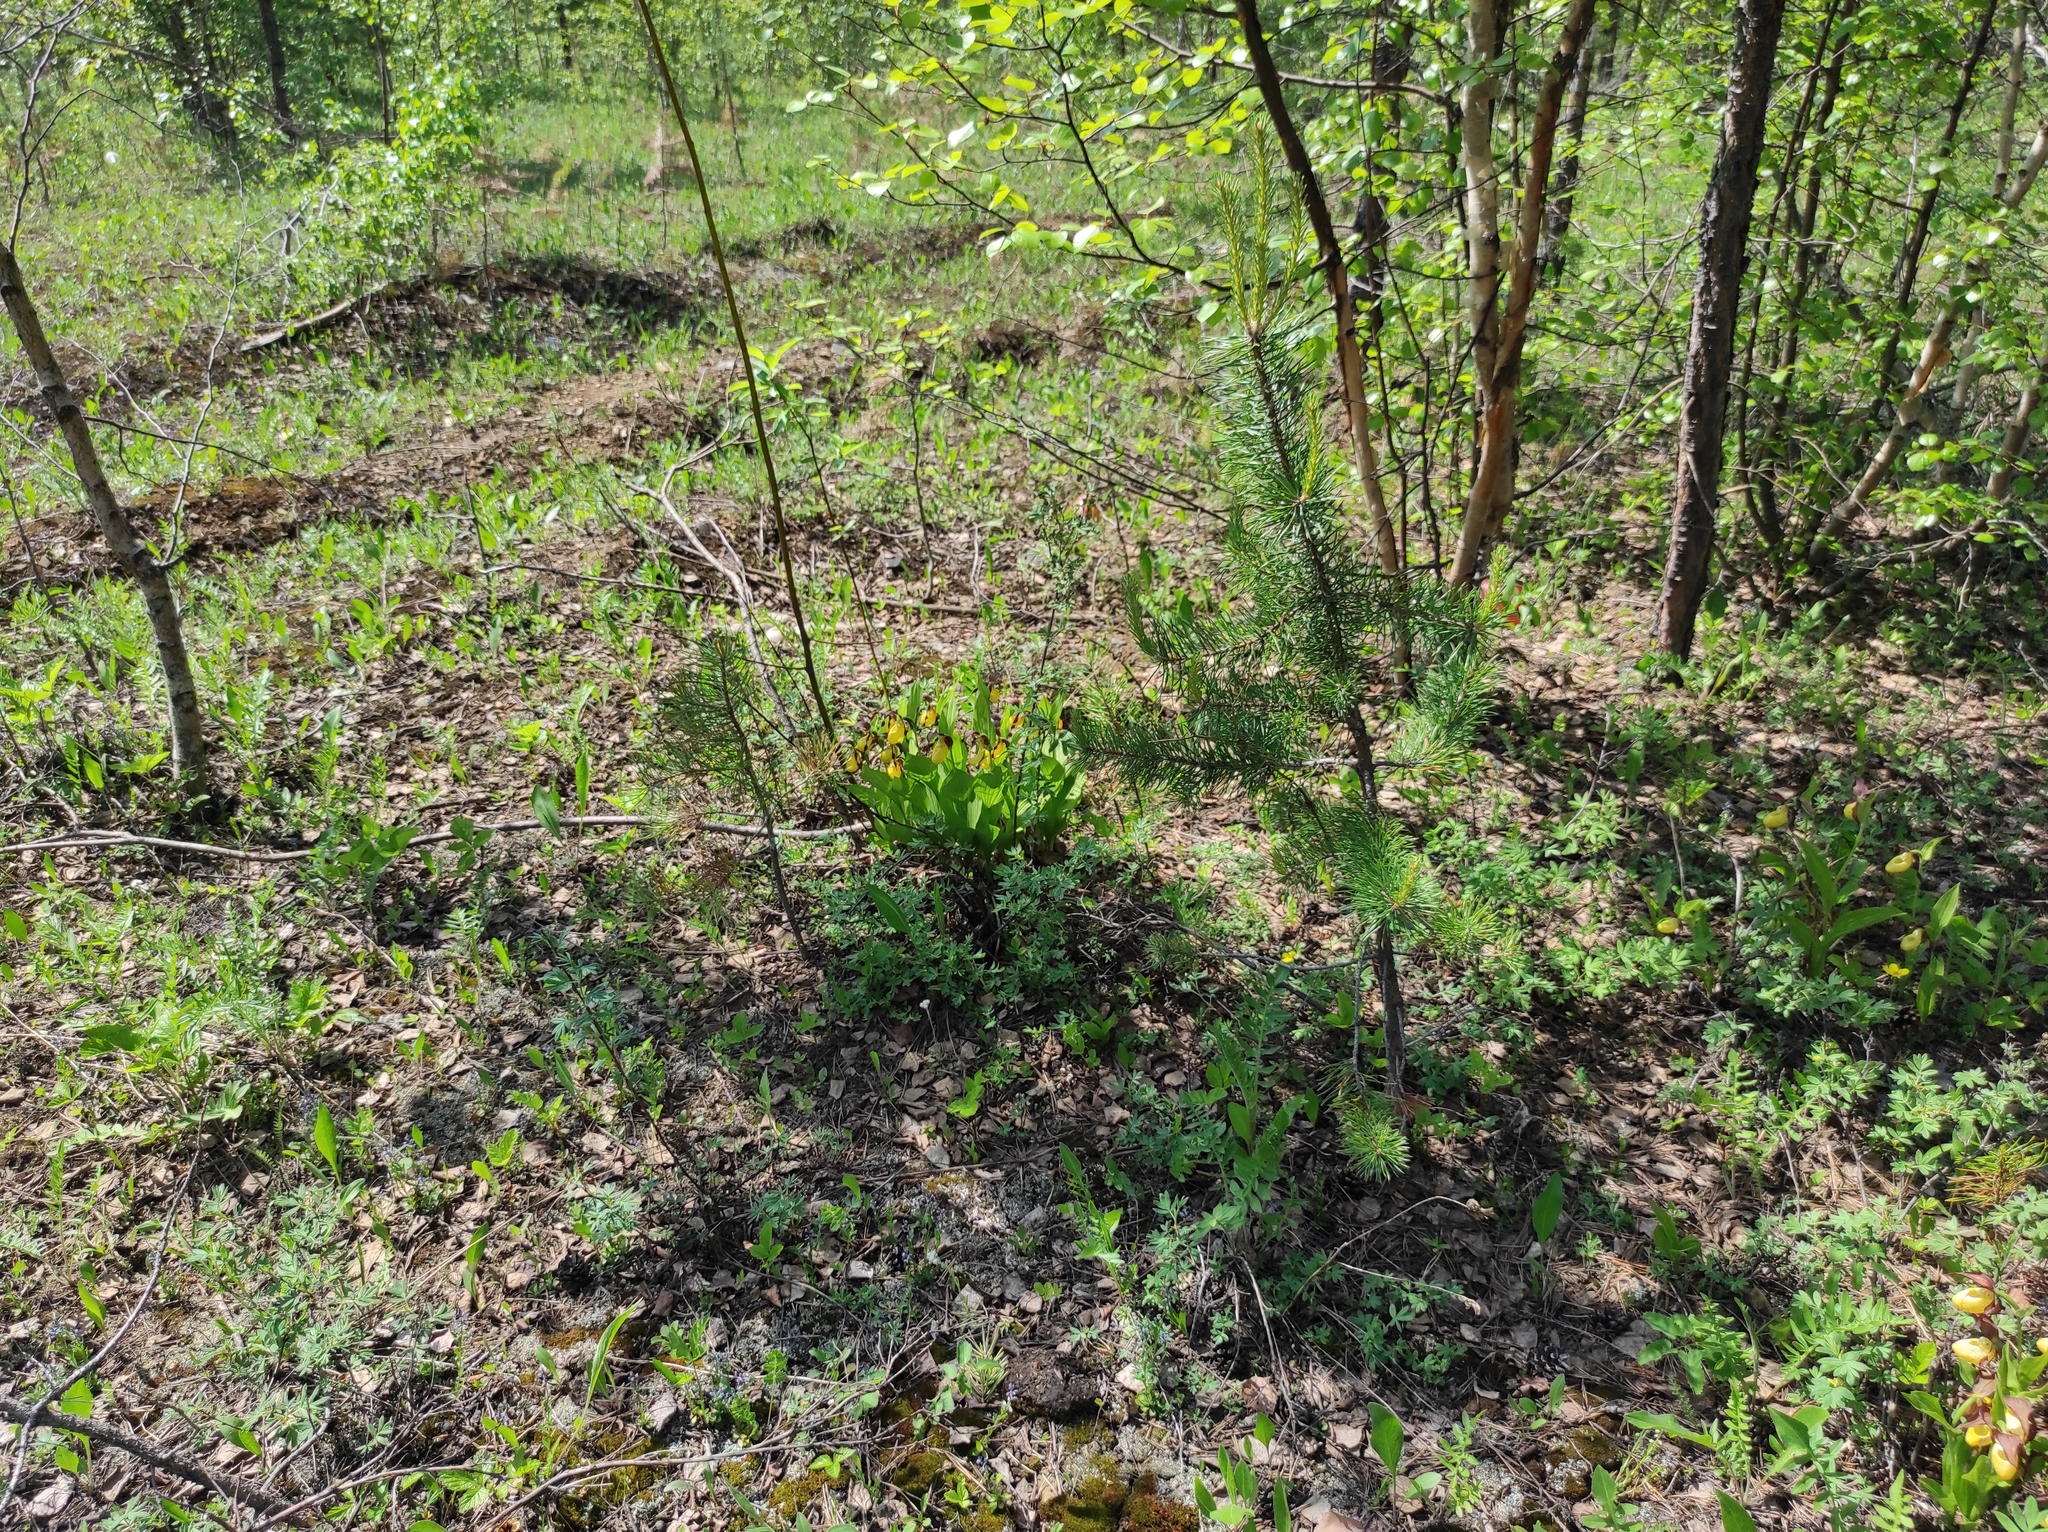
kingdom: Plantae
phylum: Tracheophyta
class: Liliopsida
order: Asparagales
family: Orchidaceae
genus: Cypripedium
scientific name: Cypripedium calceolus
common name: Lady's-slipper
